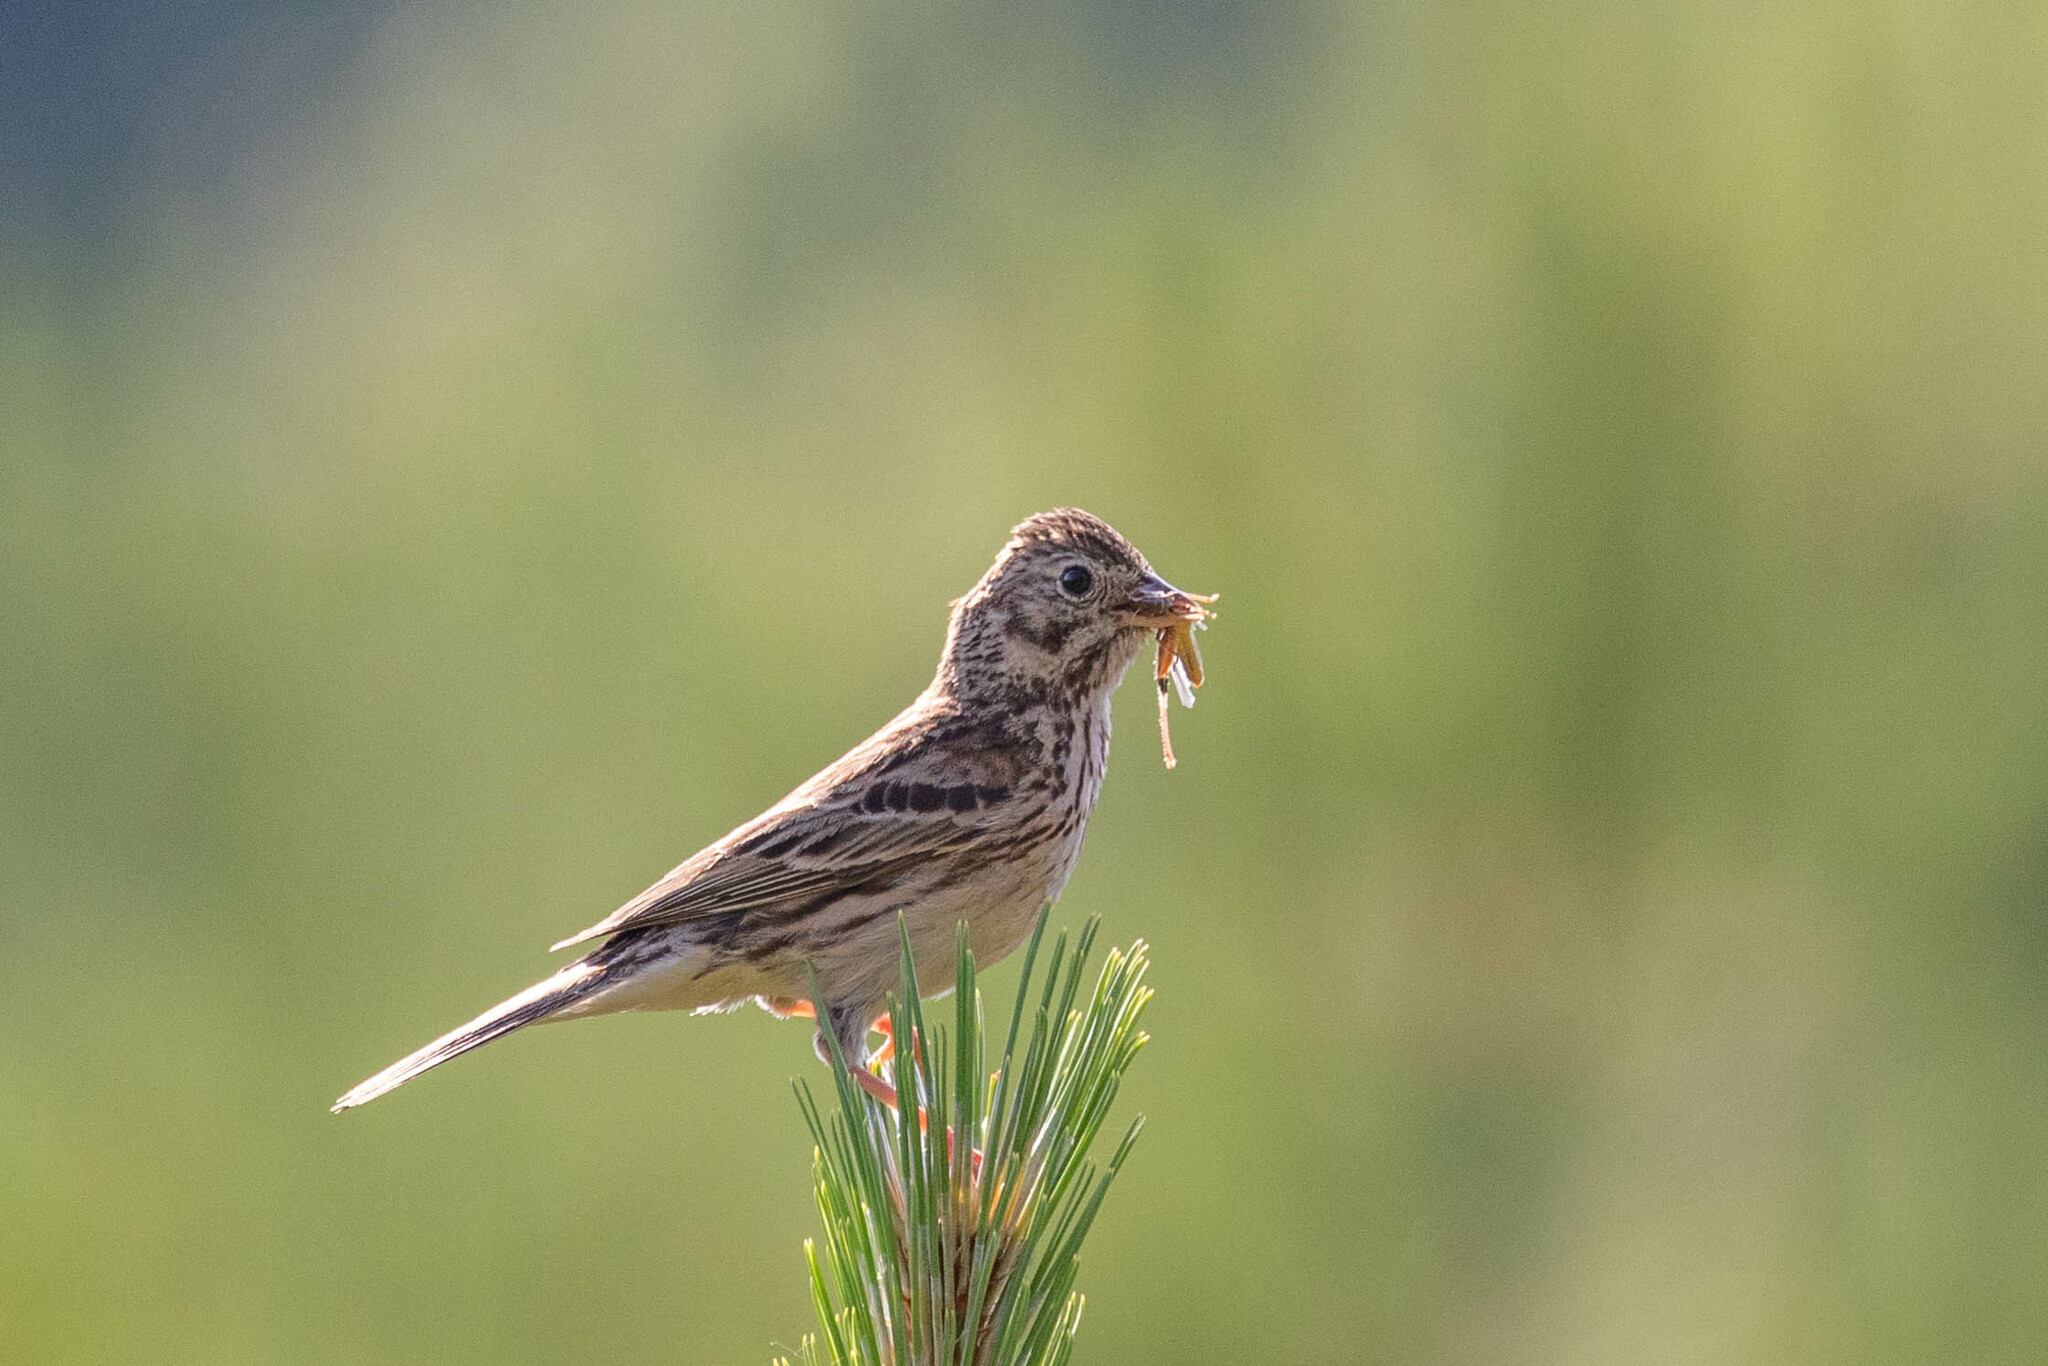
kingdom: Animalia
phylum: Chordata
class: Aves
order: Passeriformes
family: Passerellidae
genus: Pooecetes
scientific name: Pooecetes gramineus
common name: Vesper sparrow
